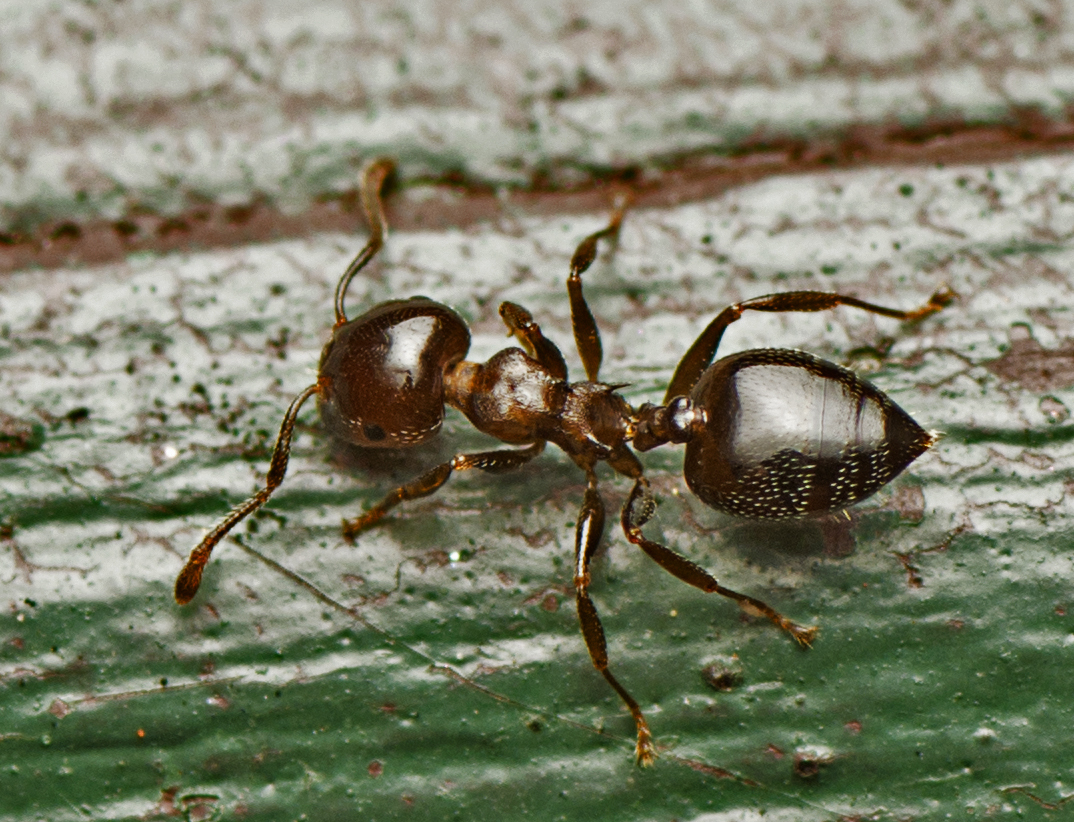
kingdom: Animalia
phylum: Arthropoda
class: Insecta
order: Hymenoptera
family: Formicidae
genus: Crematogaster
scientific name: Crematogaster cornigera
